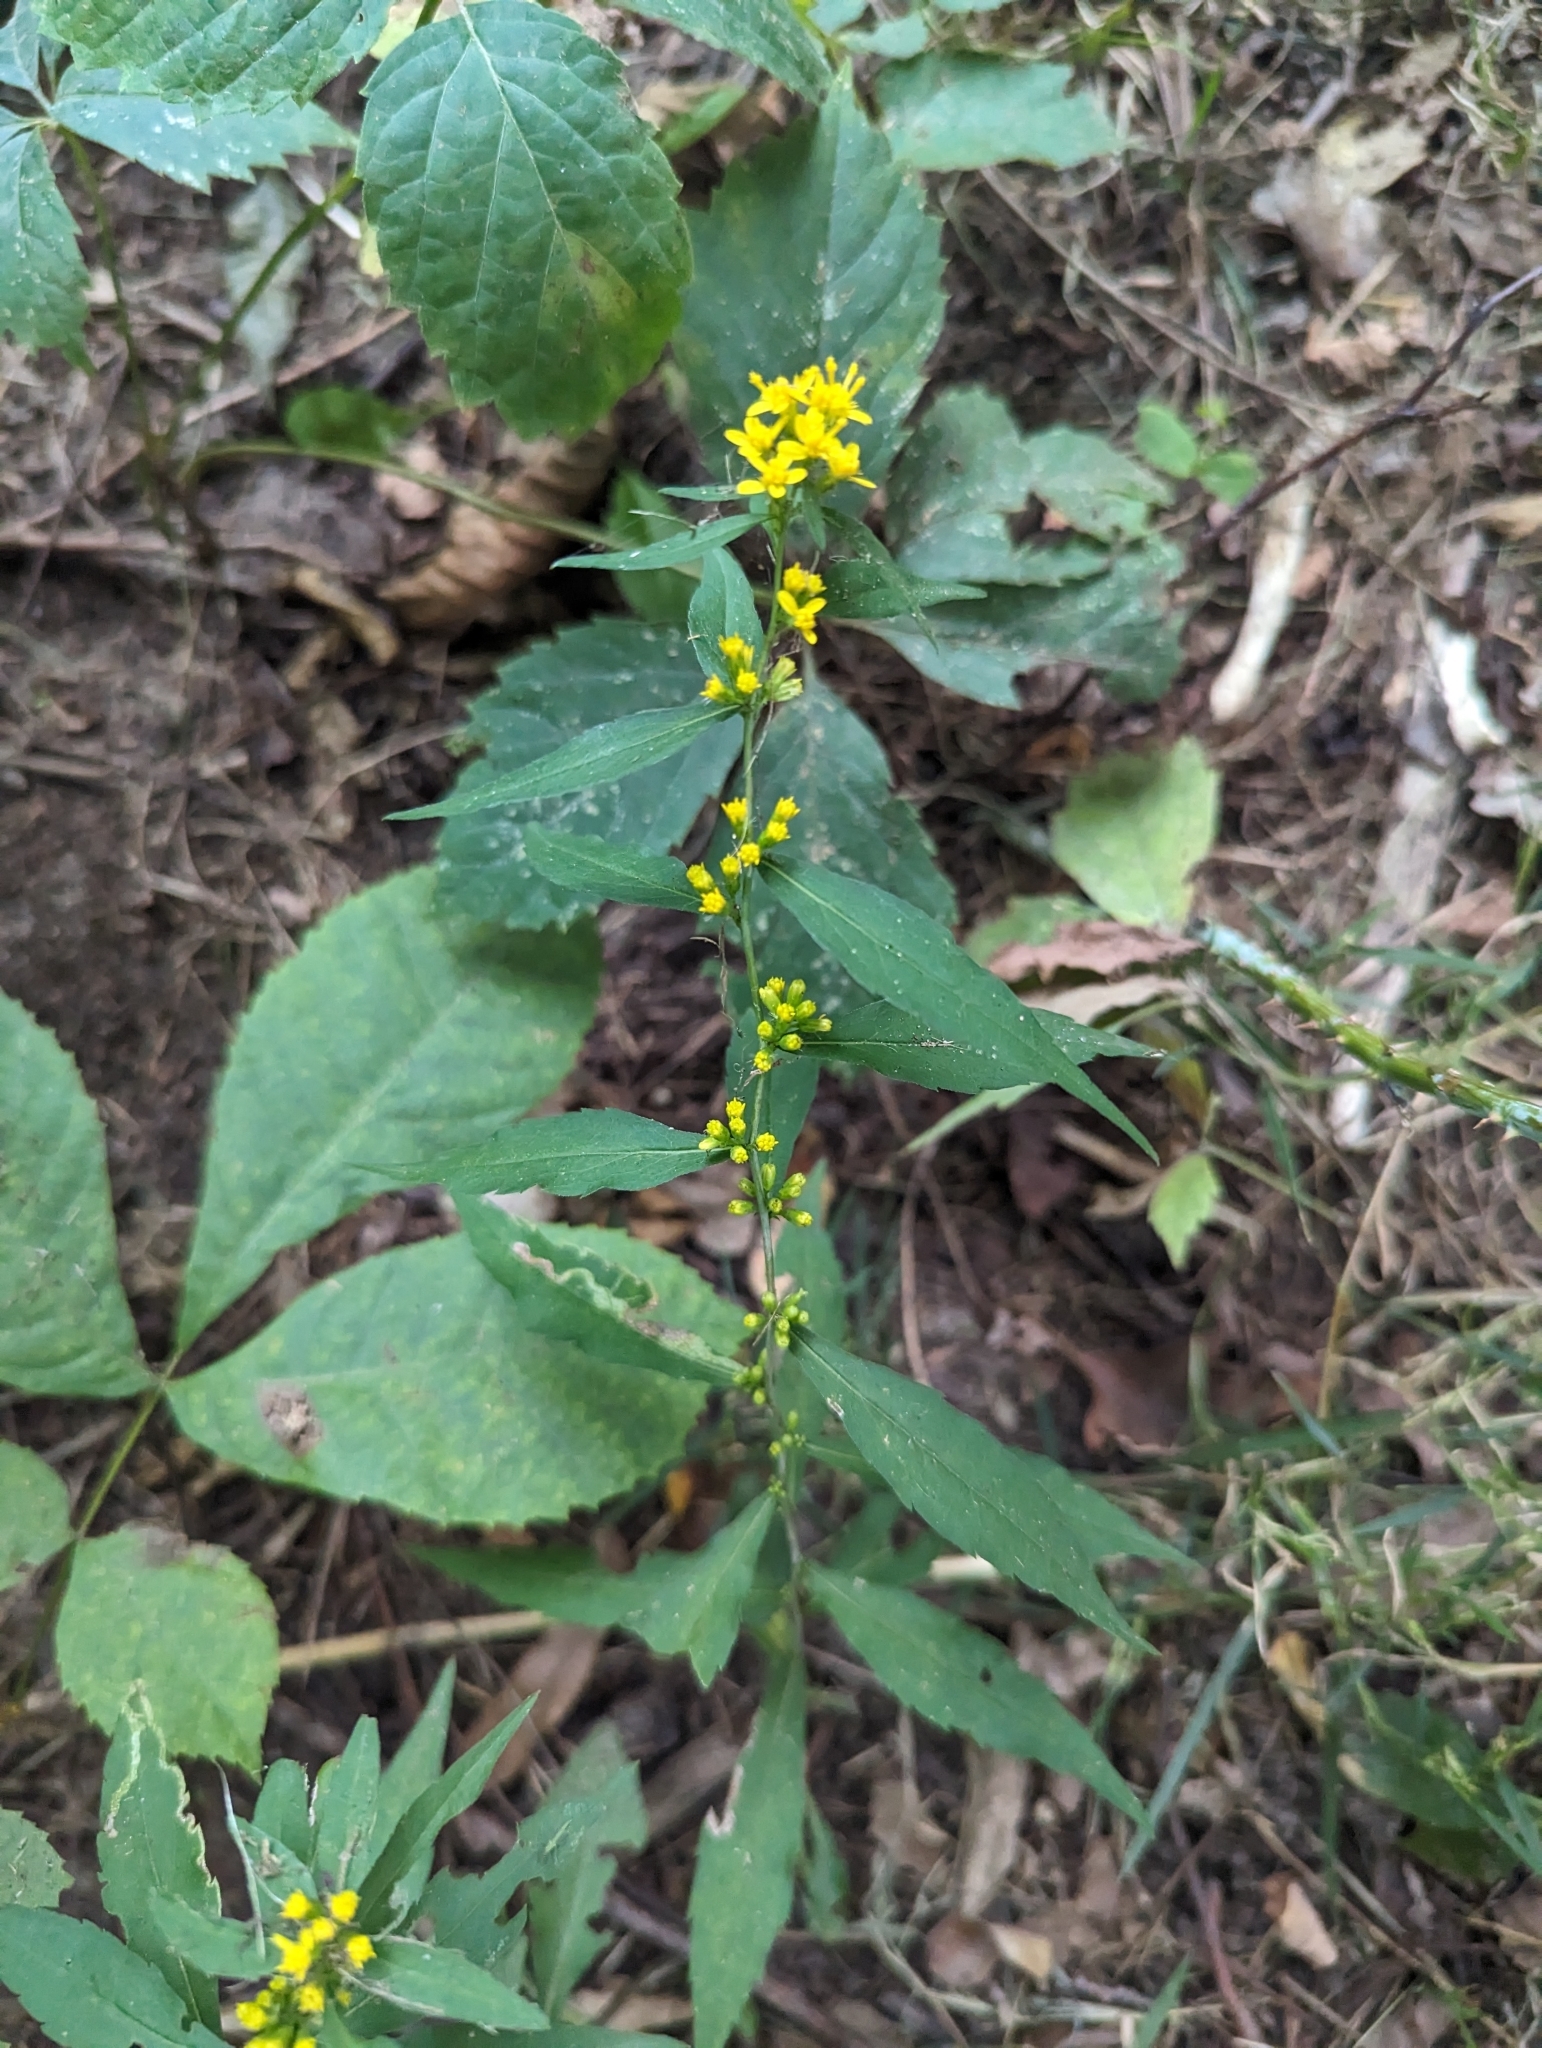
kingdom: Plantae
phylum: Tracheophyta
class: Magnoliopsida
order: Asterales
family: Asteraceae
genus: Solidago
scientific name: Solidago caesia
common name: Woodland goldenrod
